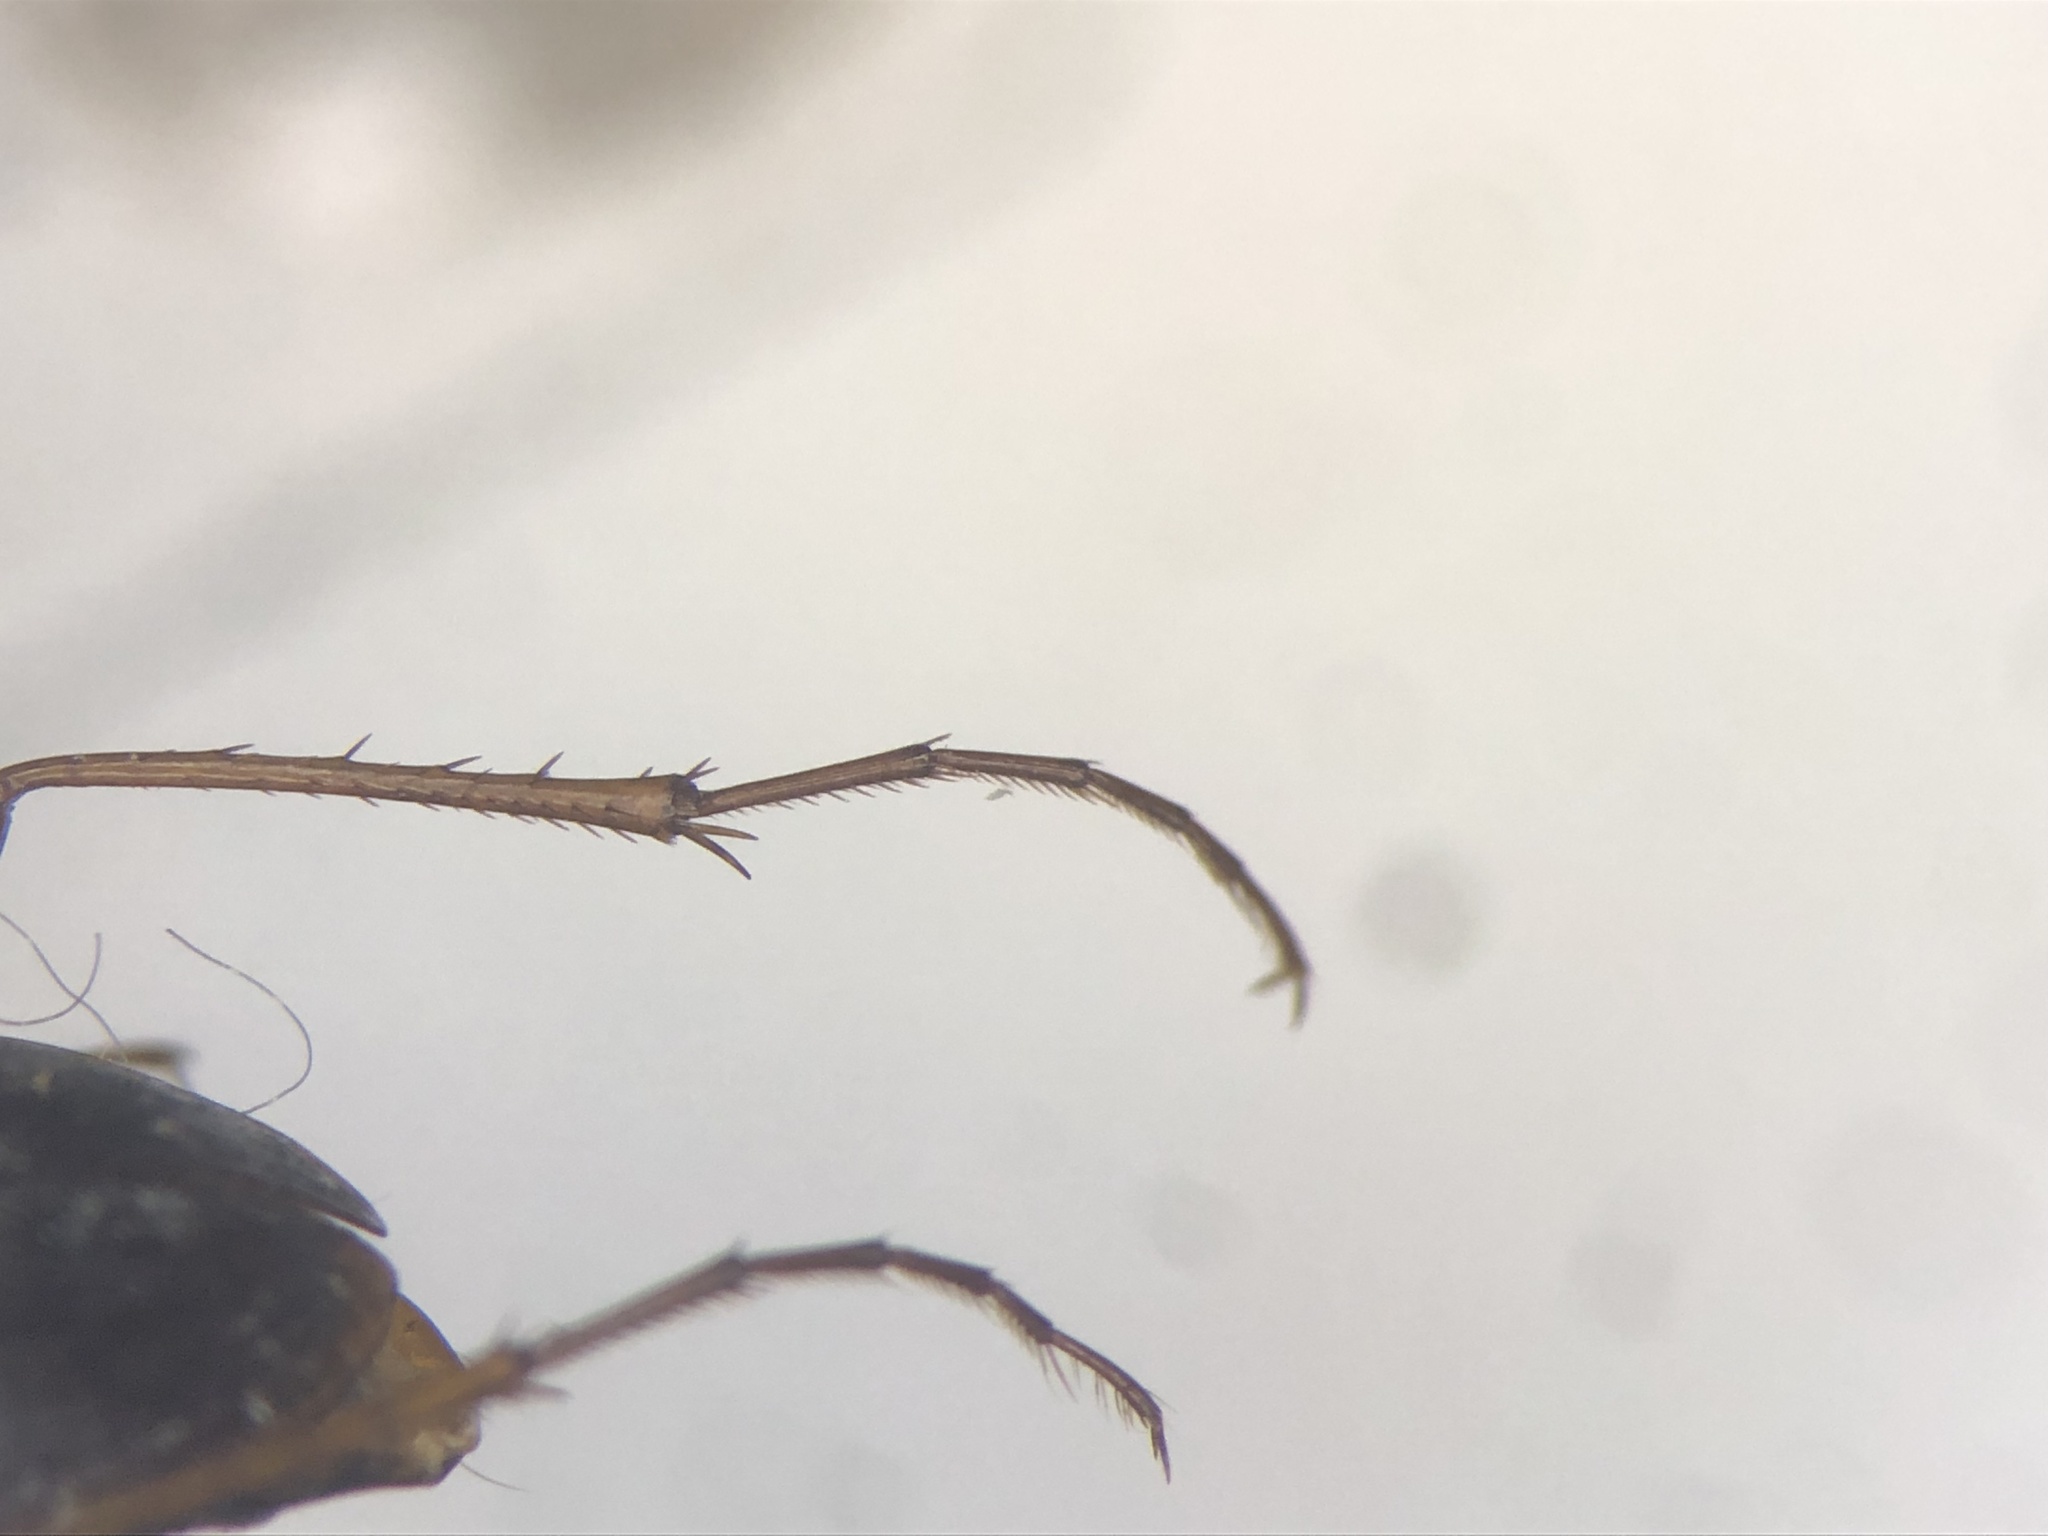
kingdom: Animalia
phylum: Arthropoda
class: Insecta
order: Coleoptera
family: Carabidae
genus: Calathus
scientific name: Calathus gregarius
